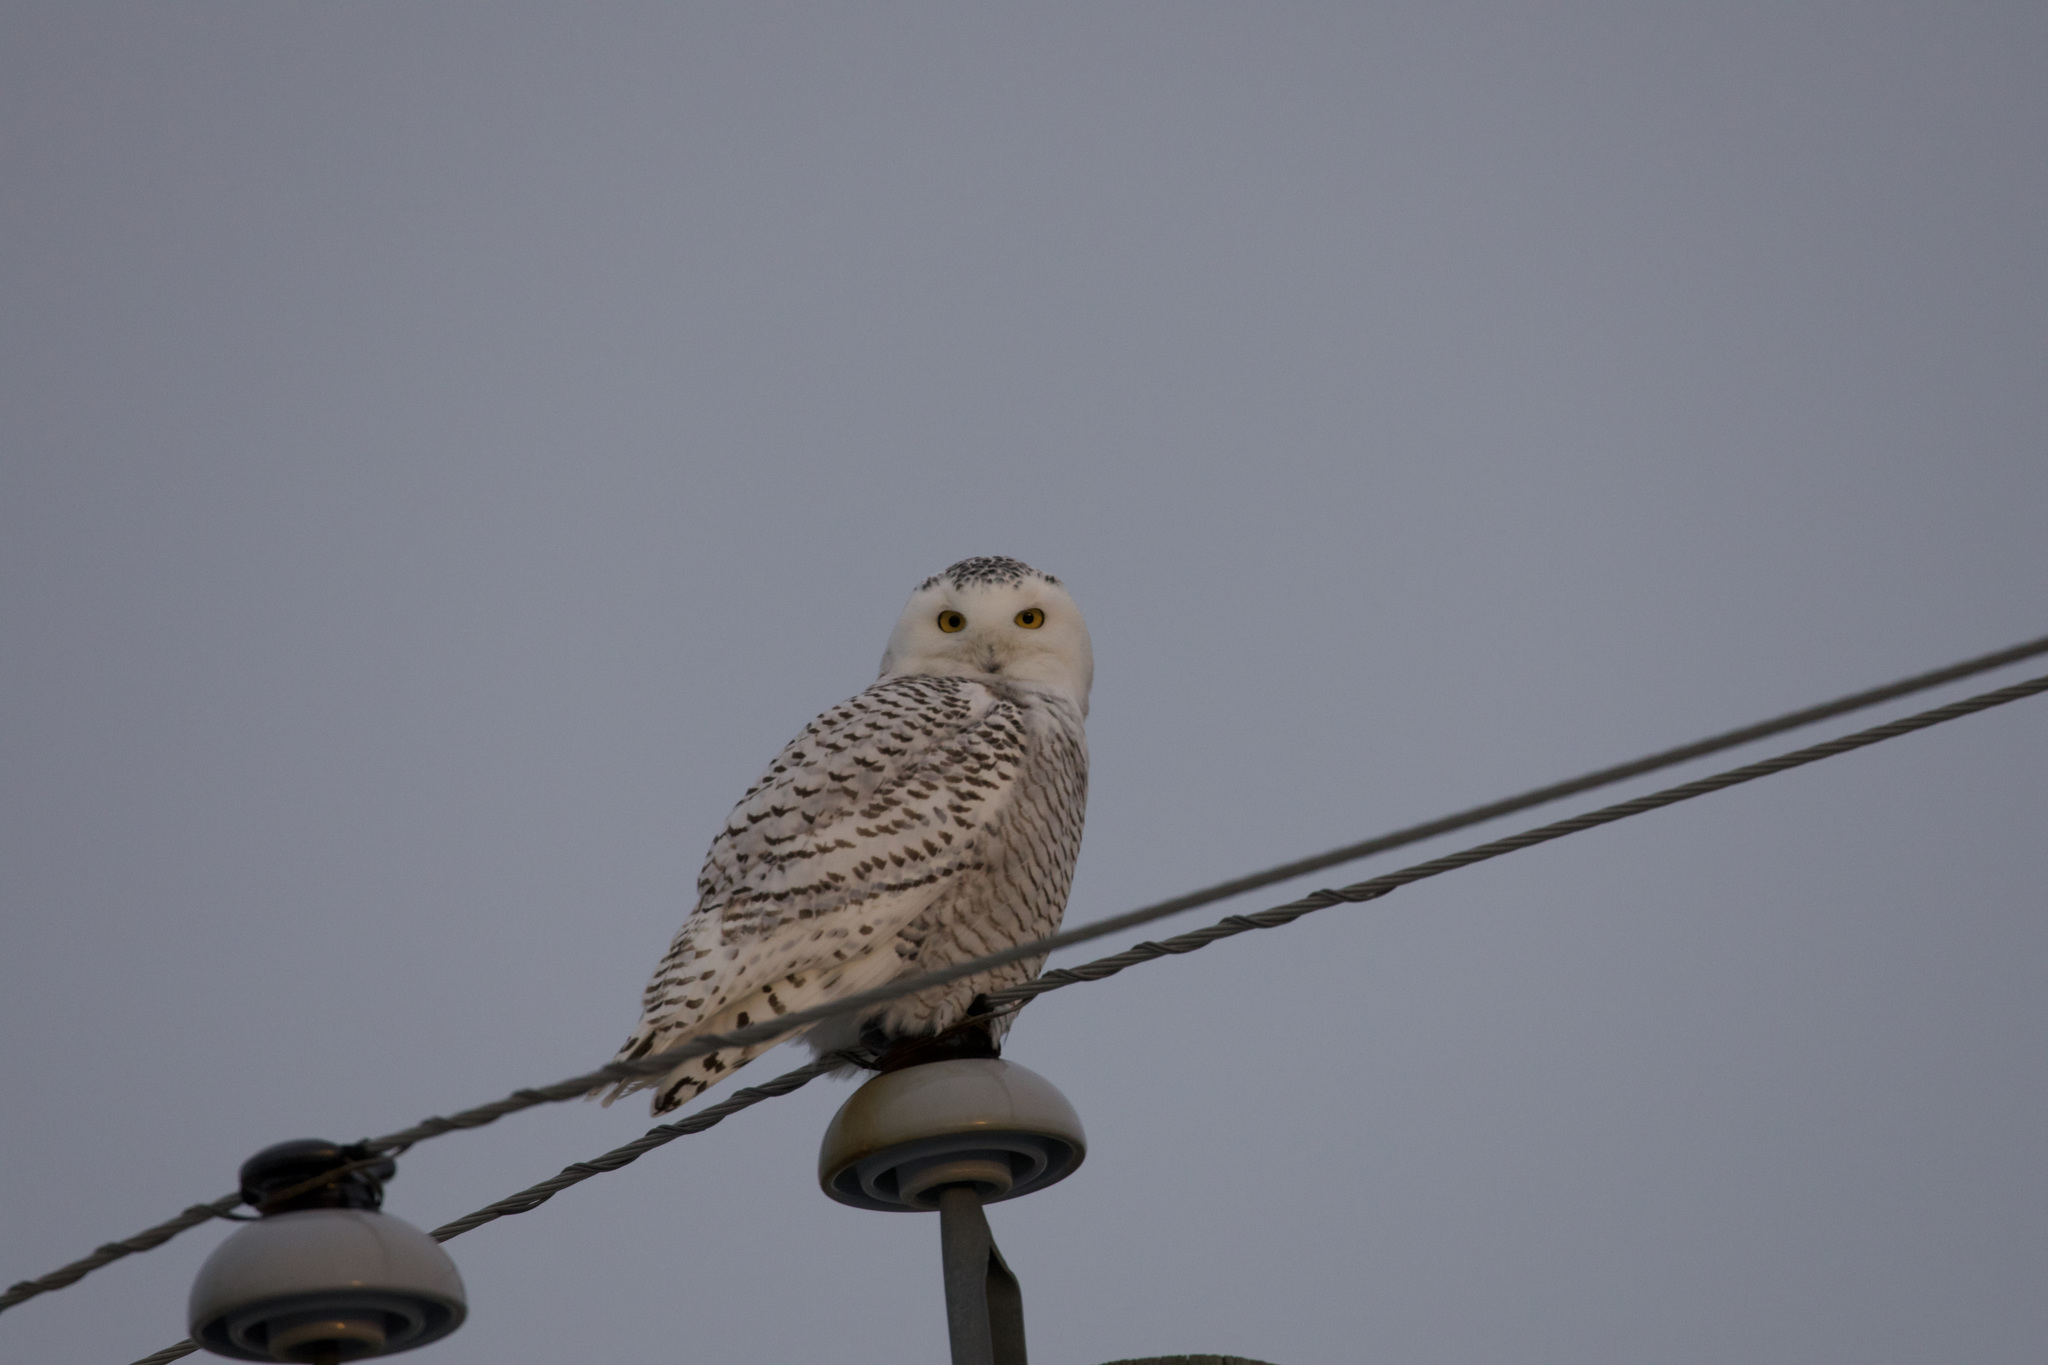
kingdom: Animalia
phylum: Chordata
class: Aves
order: Strigiformes
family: Strigidae
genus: Bubo
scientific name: Bubo scandiacus
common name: Snowy owl
